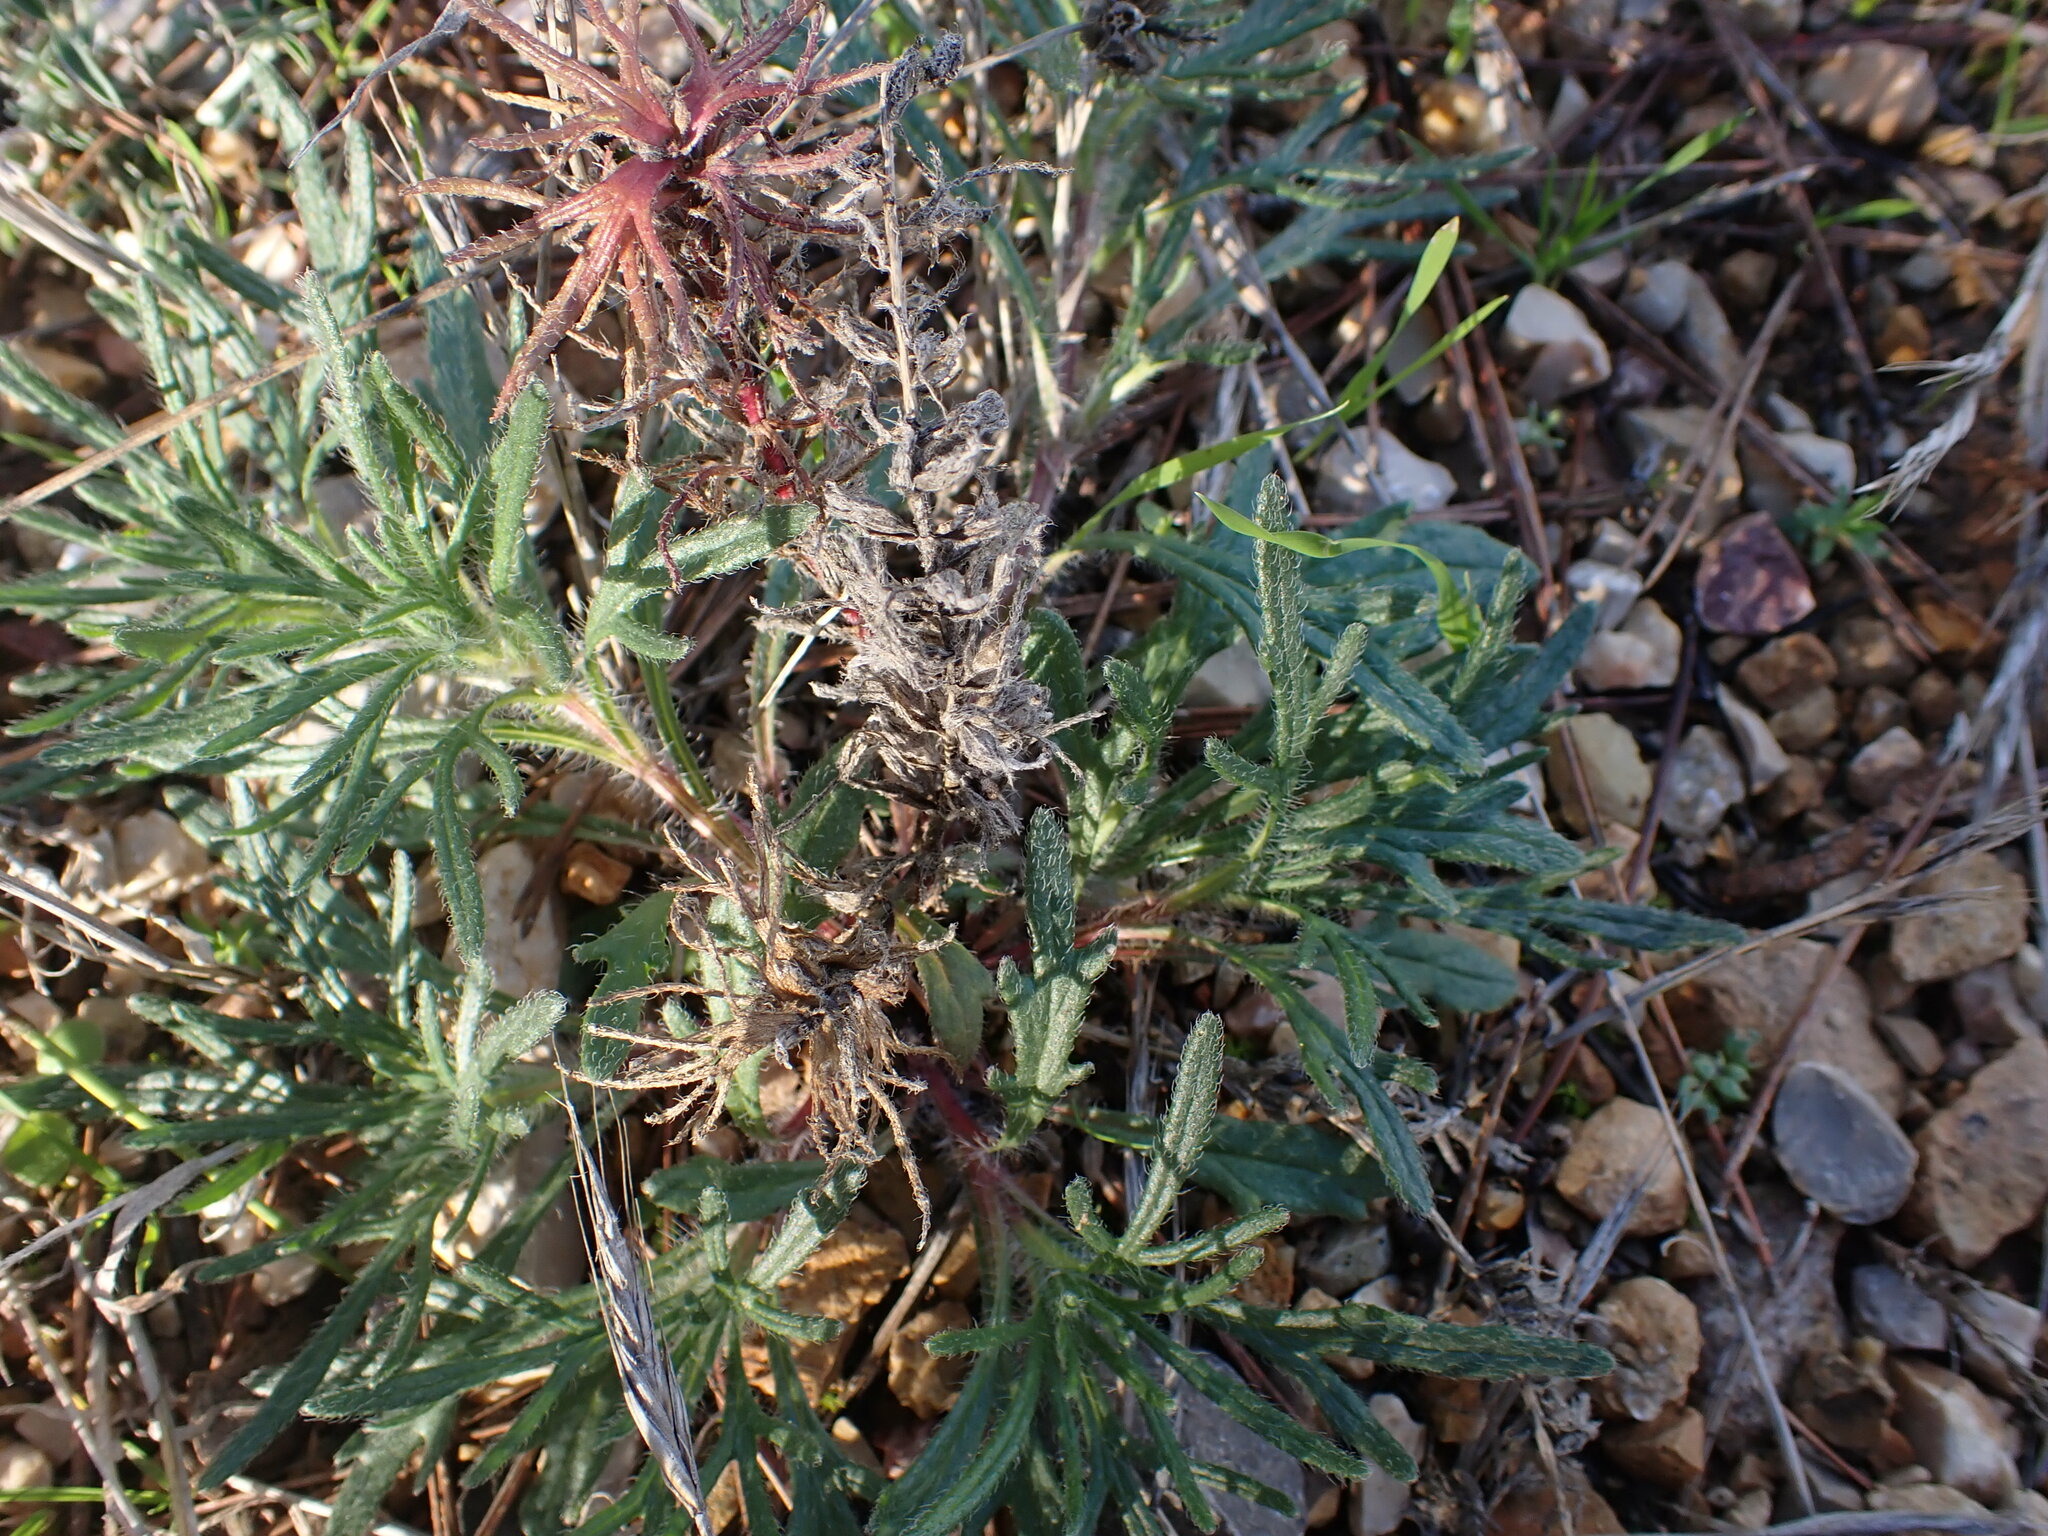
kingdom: Plantae
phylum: Tracheophyta
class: Magnoliopsida
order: Lamiales
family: Lamiaceae
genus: Ajuga
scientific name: Ajuga chamaepitys
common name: Ground-pine
